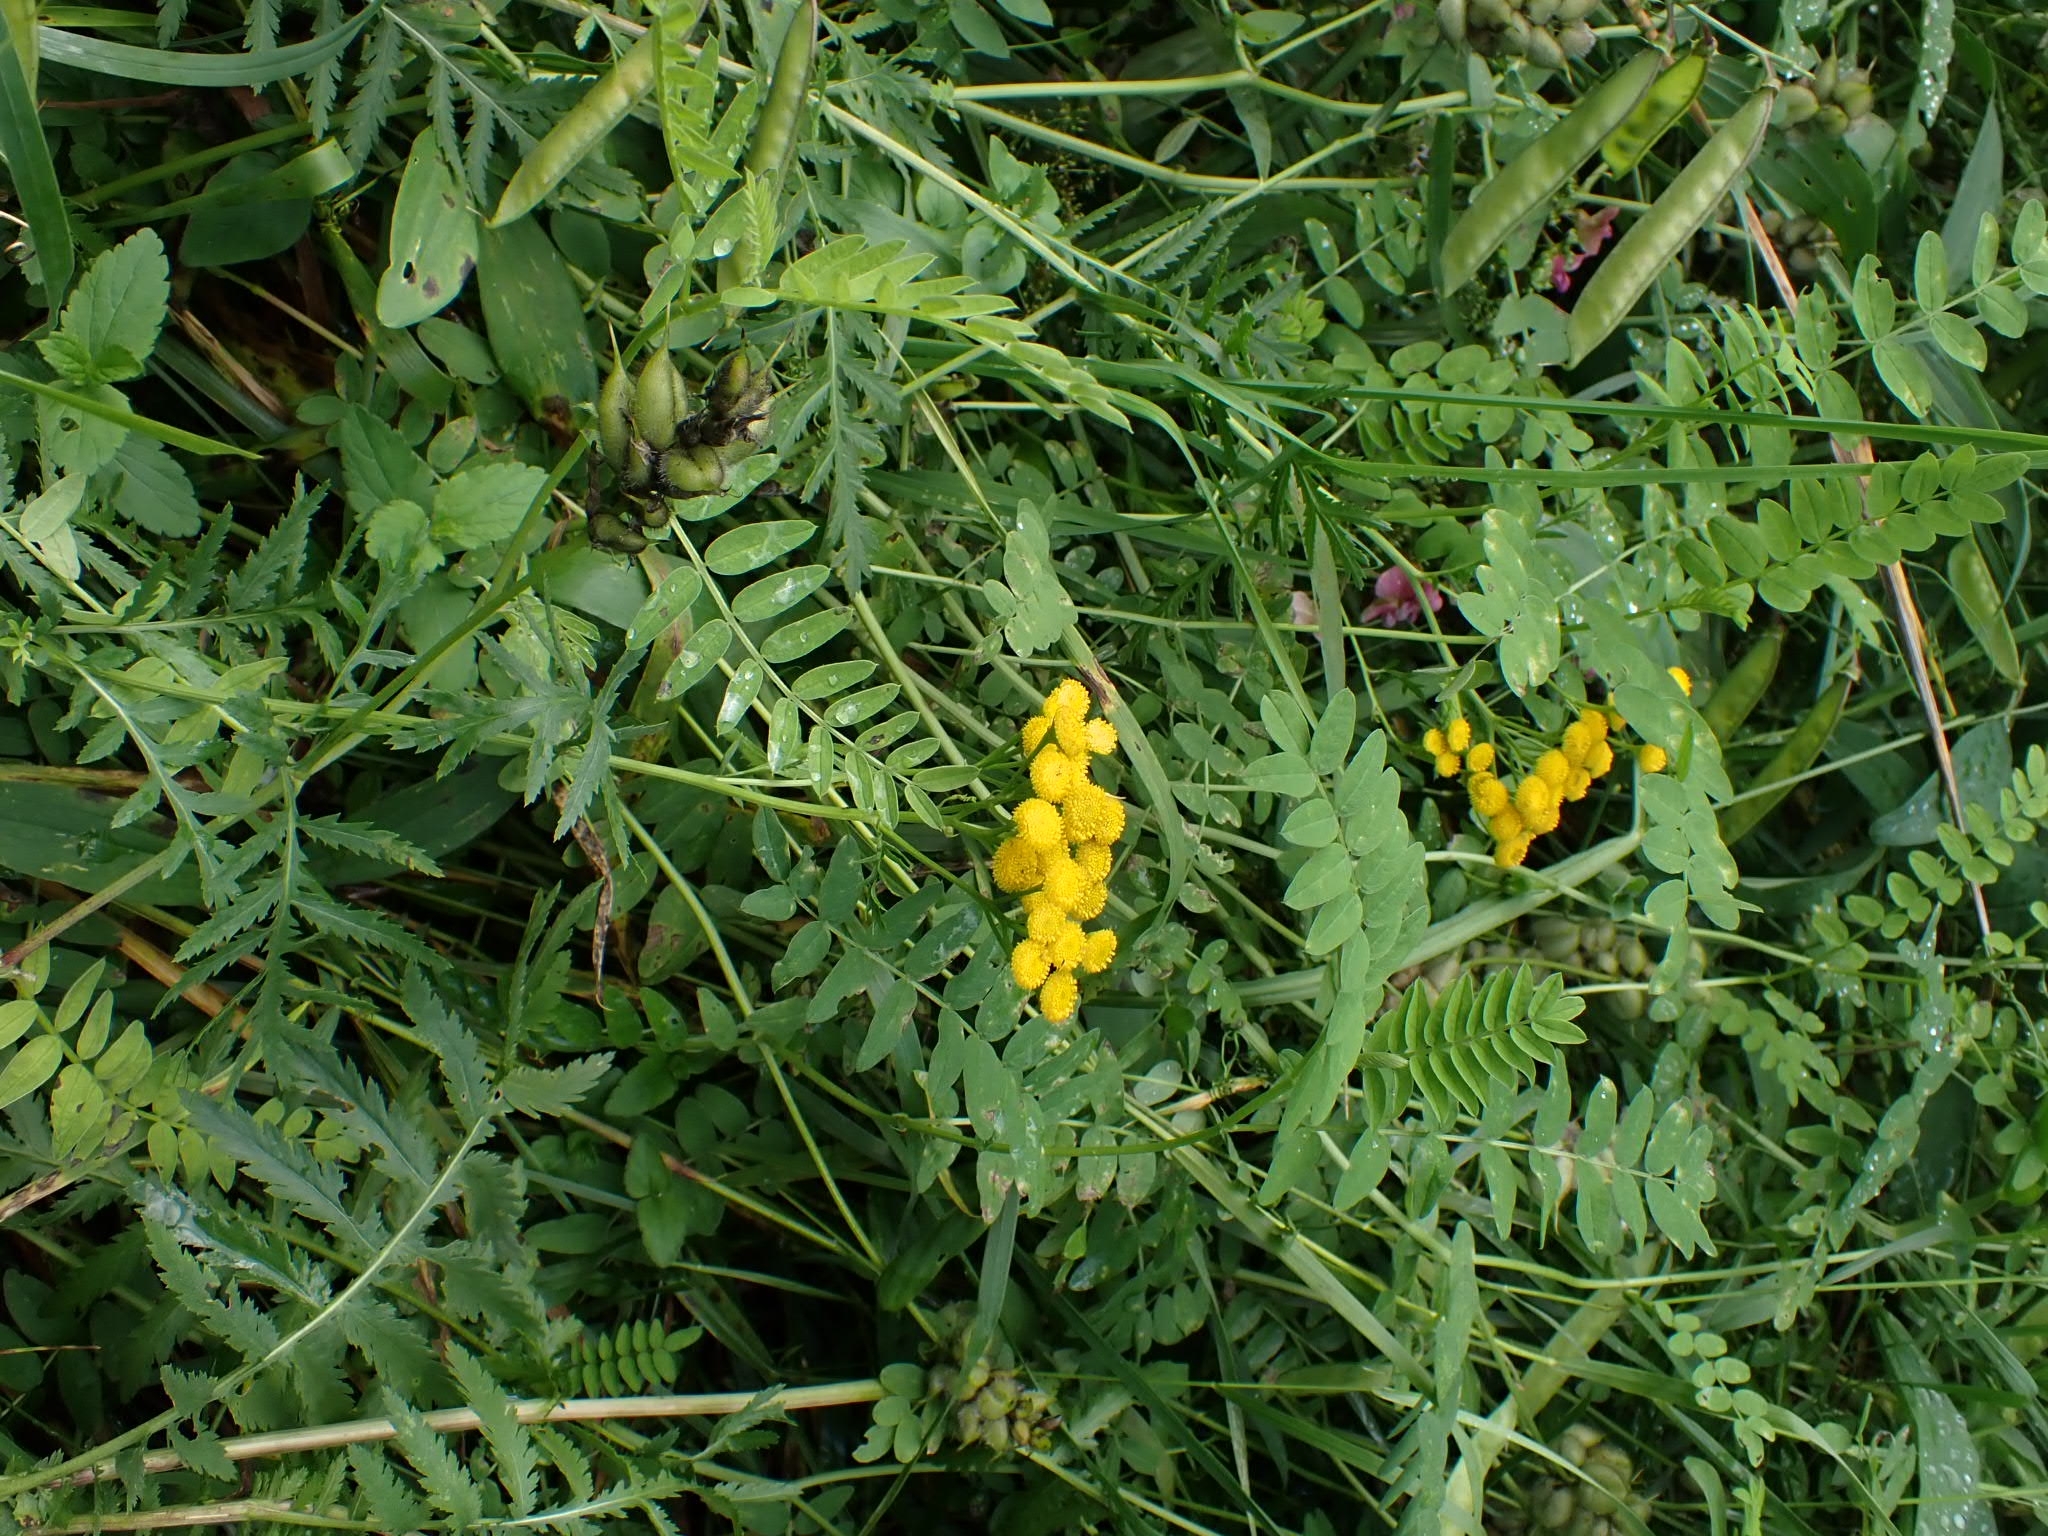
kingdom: Plantae
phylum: Tracheophyta
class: Magnoliopsida
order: Asterales
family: Asteraceae
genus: Tanacetum
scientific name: Tanacetum vulgare
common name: Common tansy
